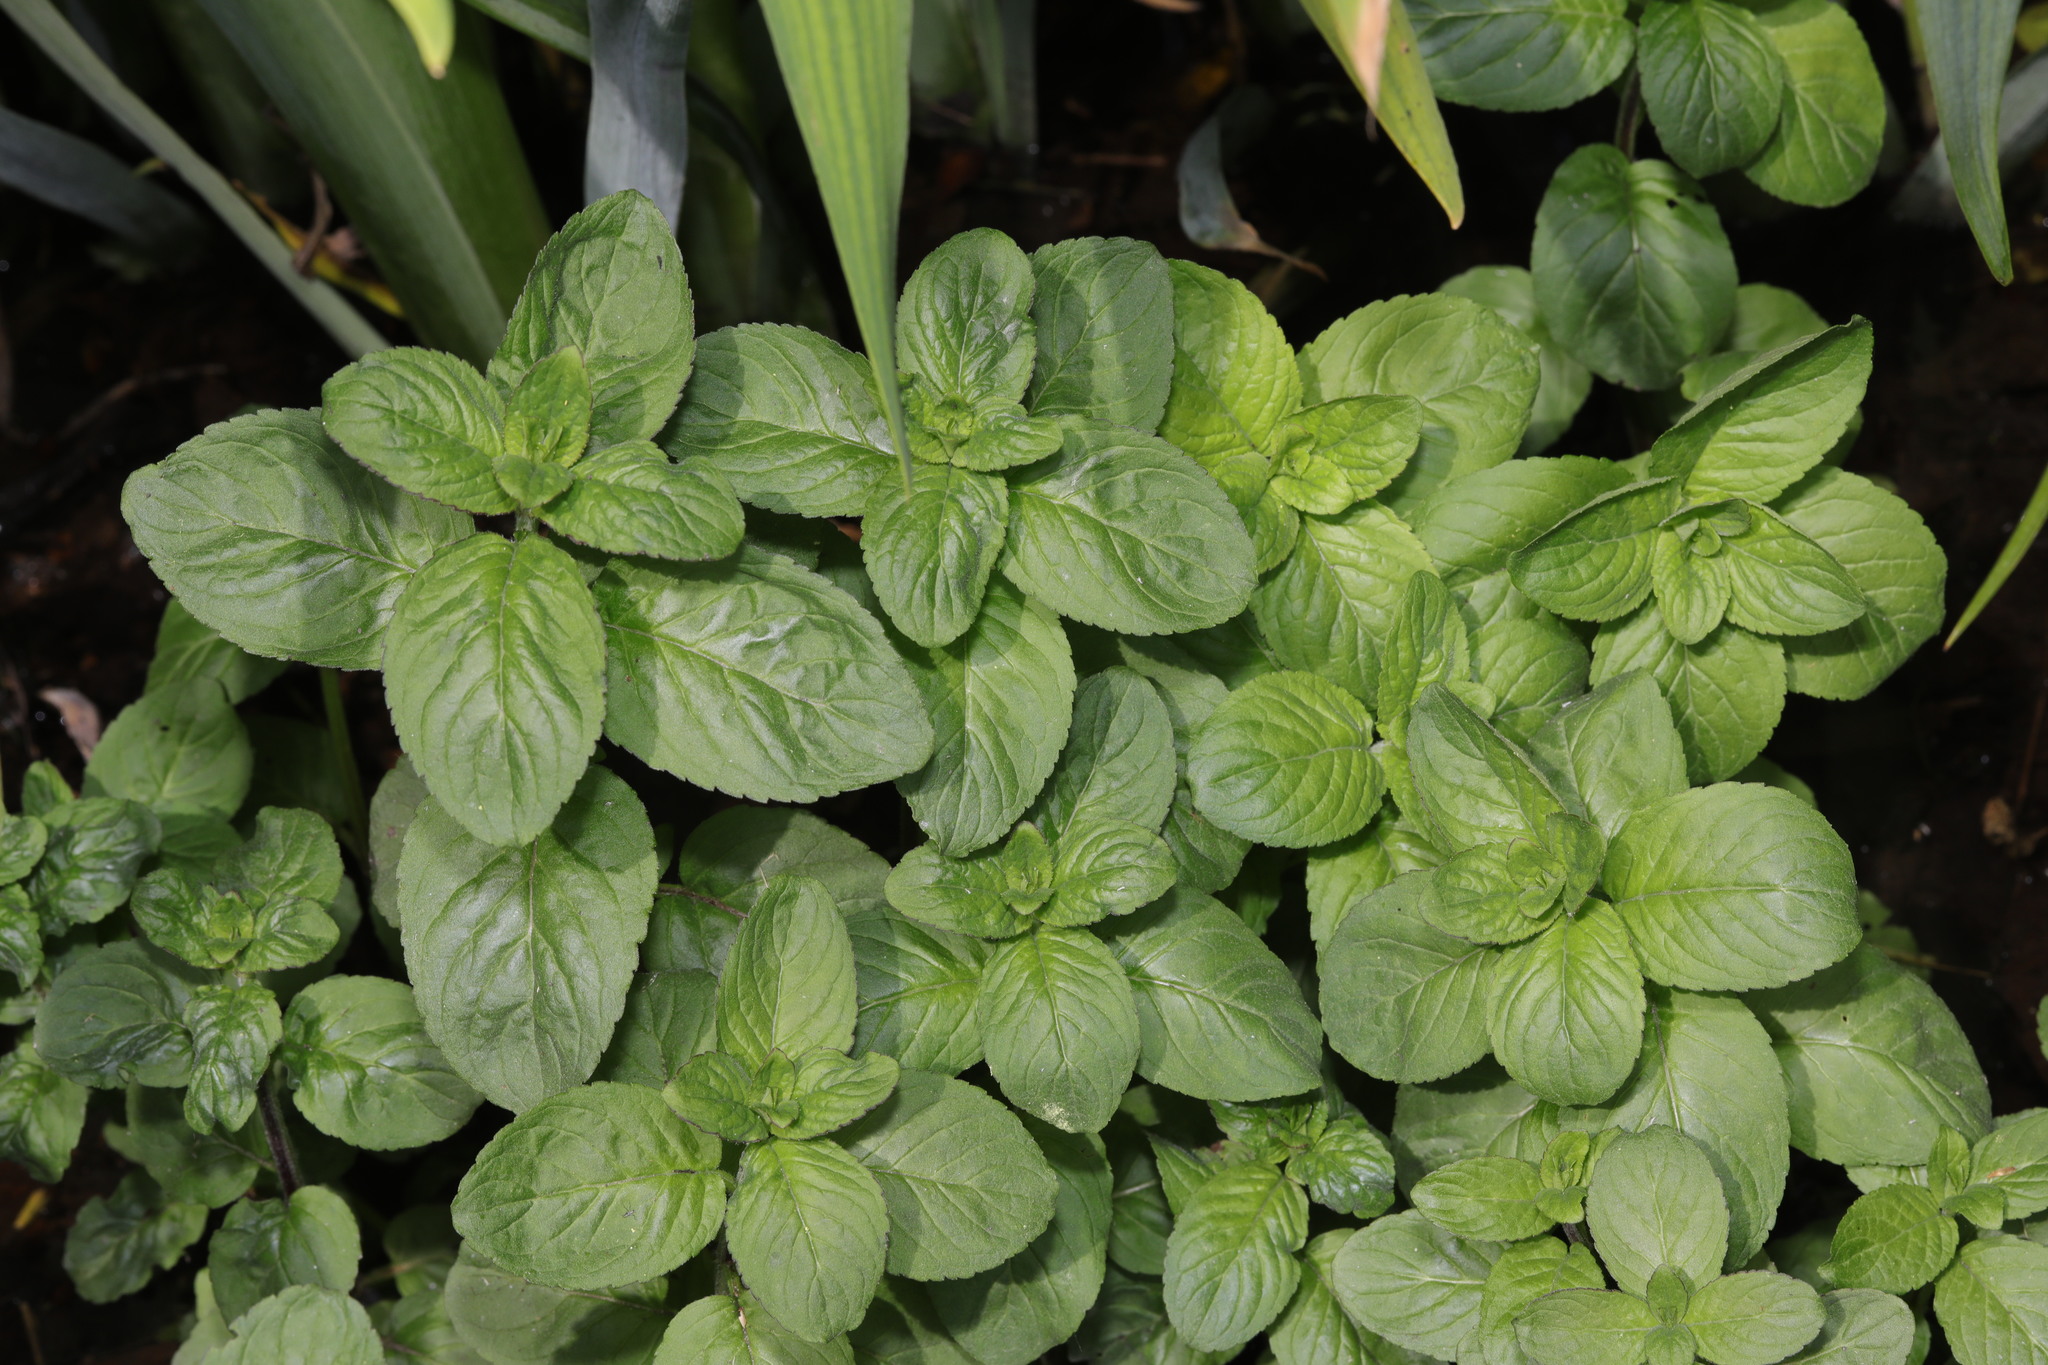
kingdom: Plantae
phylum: Tracheophyta
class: Magnoliopsida
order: Lamiales
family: Lamiaceae
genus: Mentha
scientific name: Mentha aquatica
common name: Water mint
